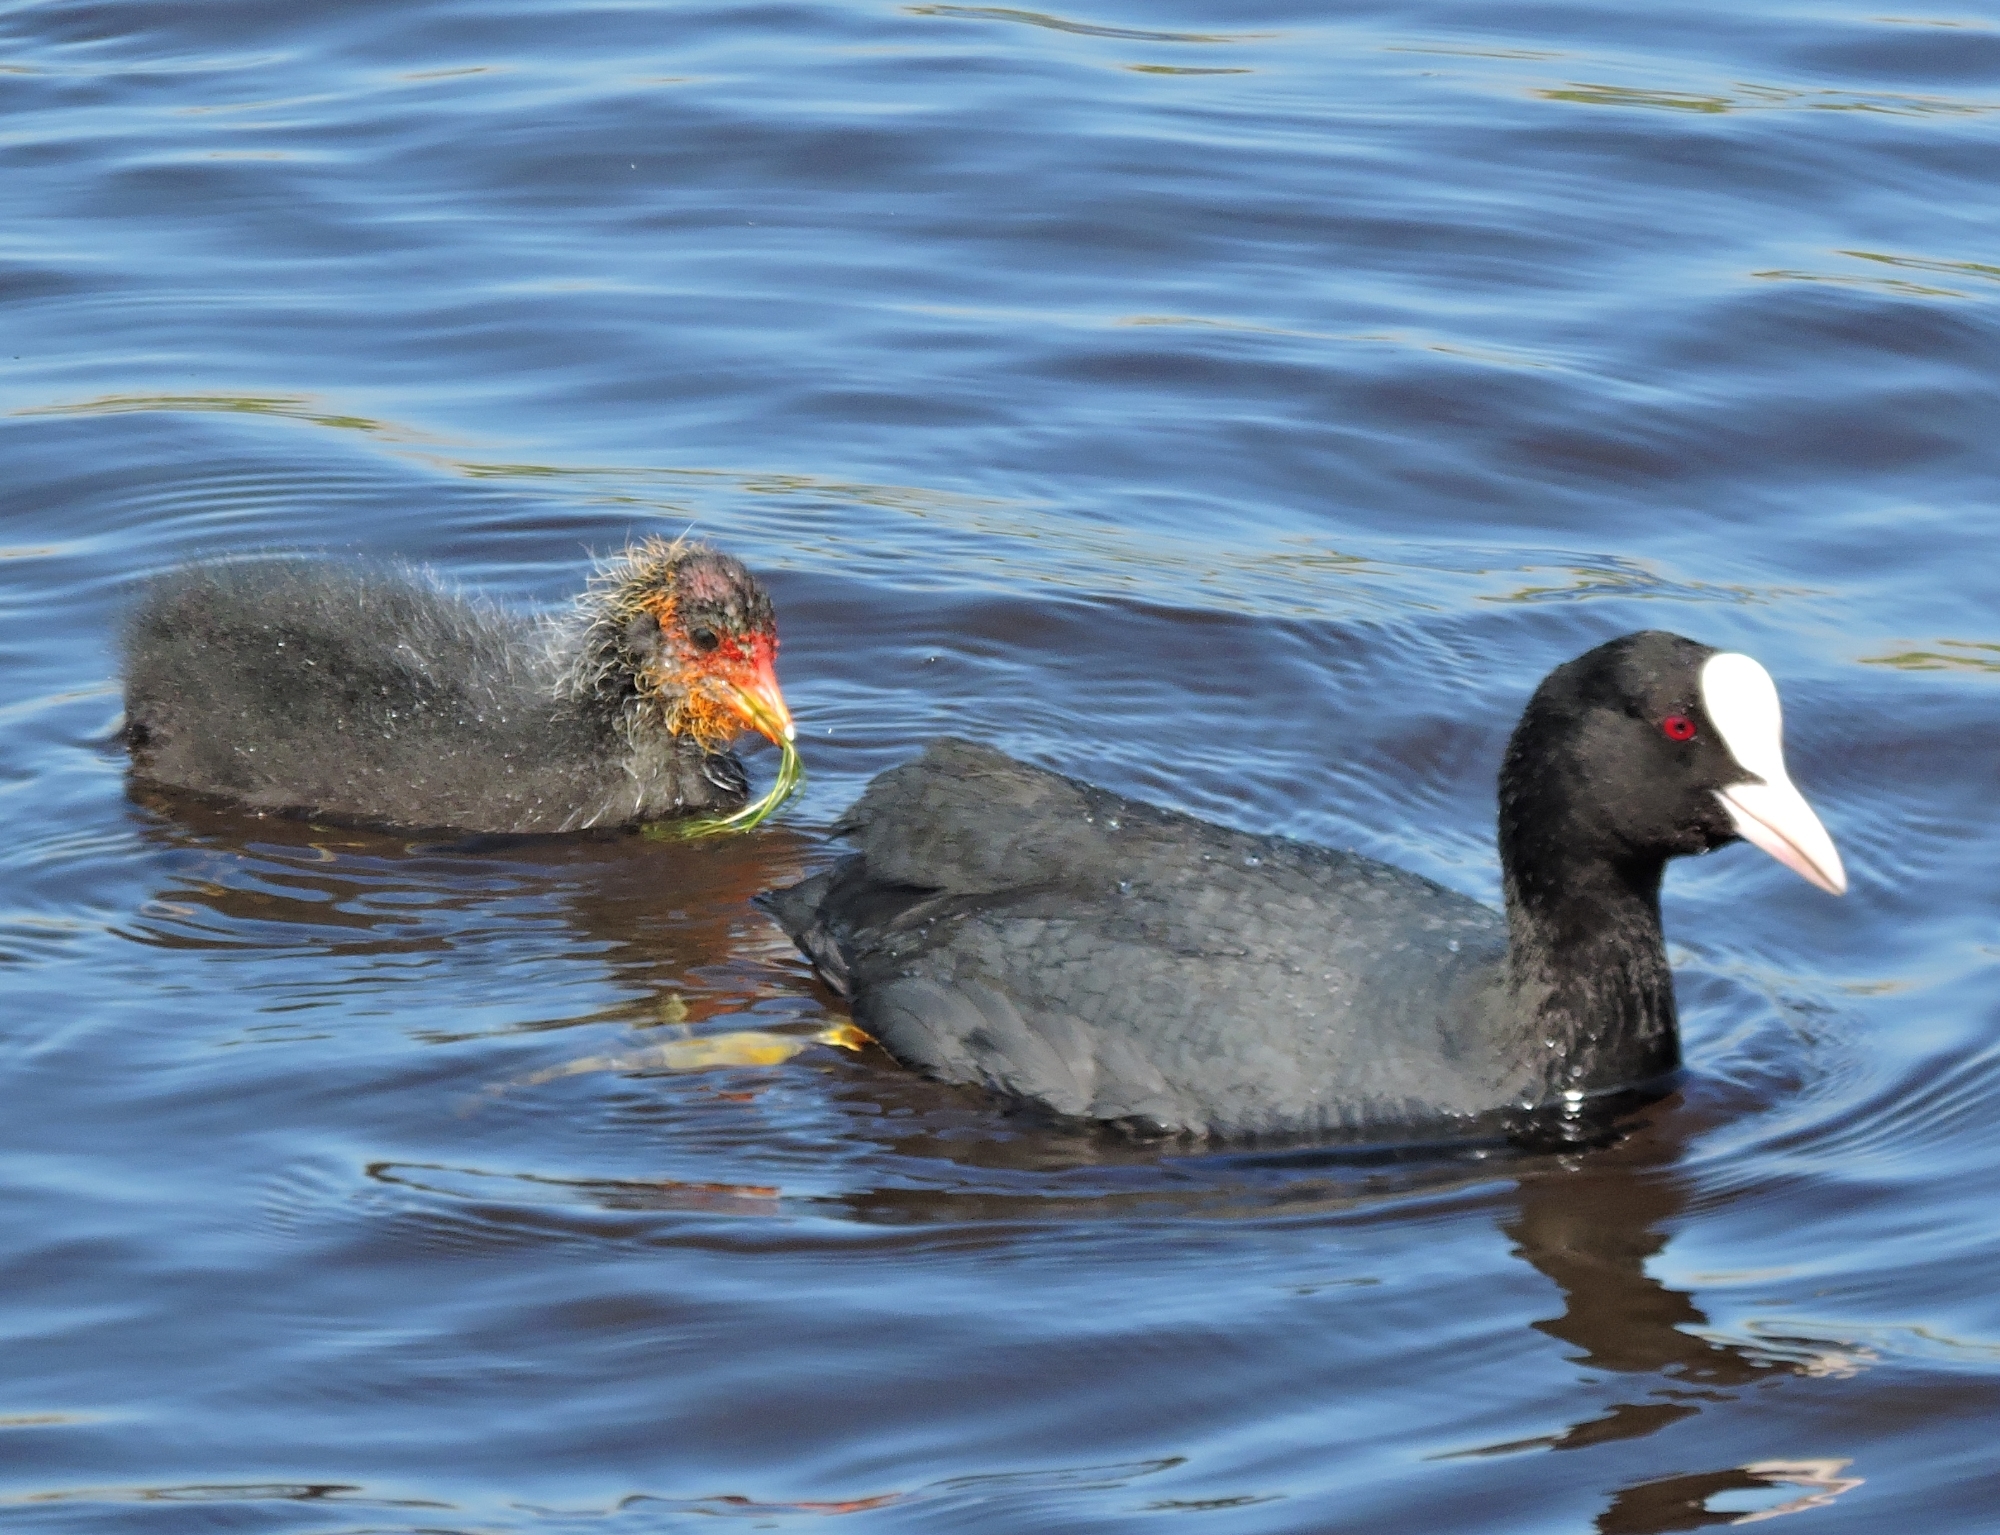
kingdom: Animalia
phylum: Chordata
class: Aves
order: Gruiformes
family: Rallidae
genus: Fulica
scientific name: Fulica atra
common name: Eurasian coot
